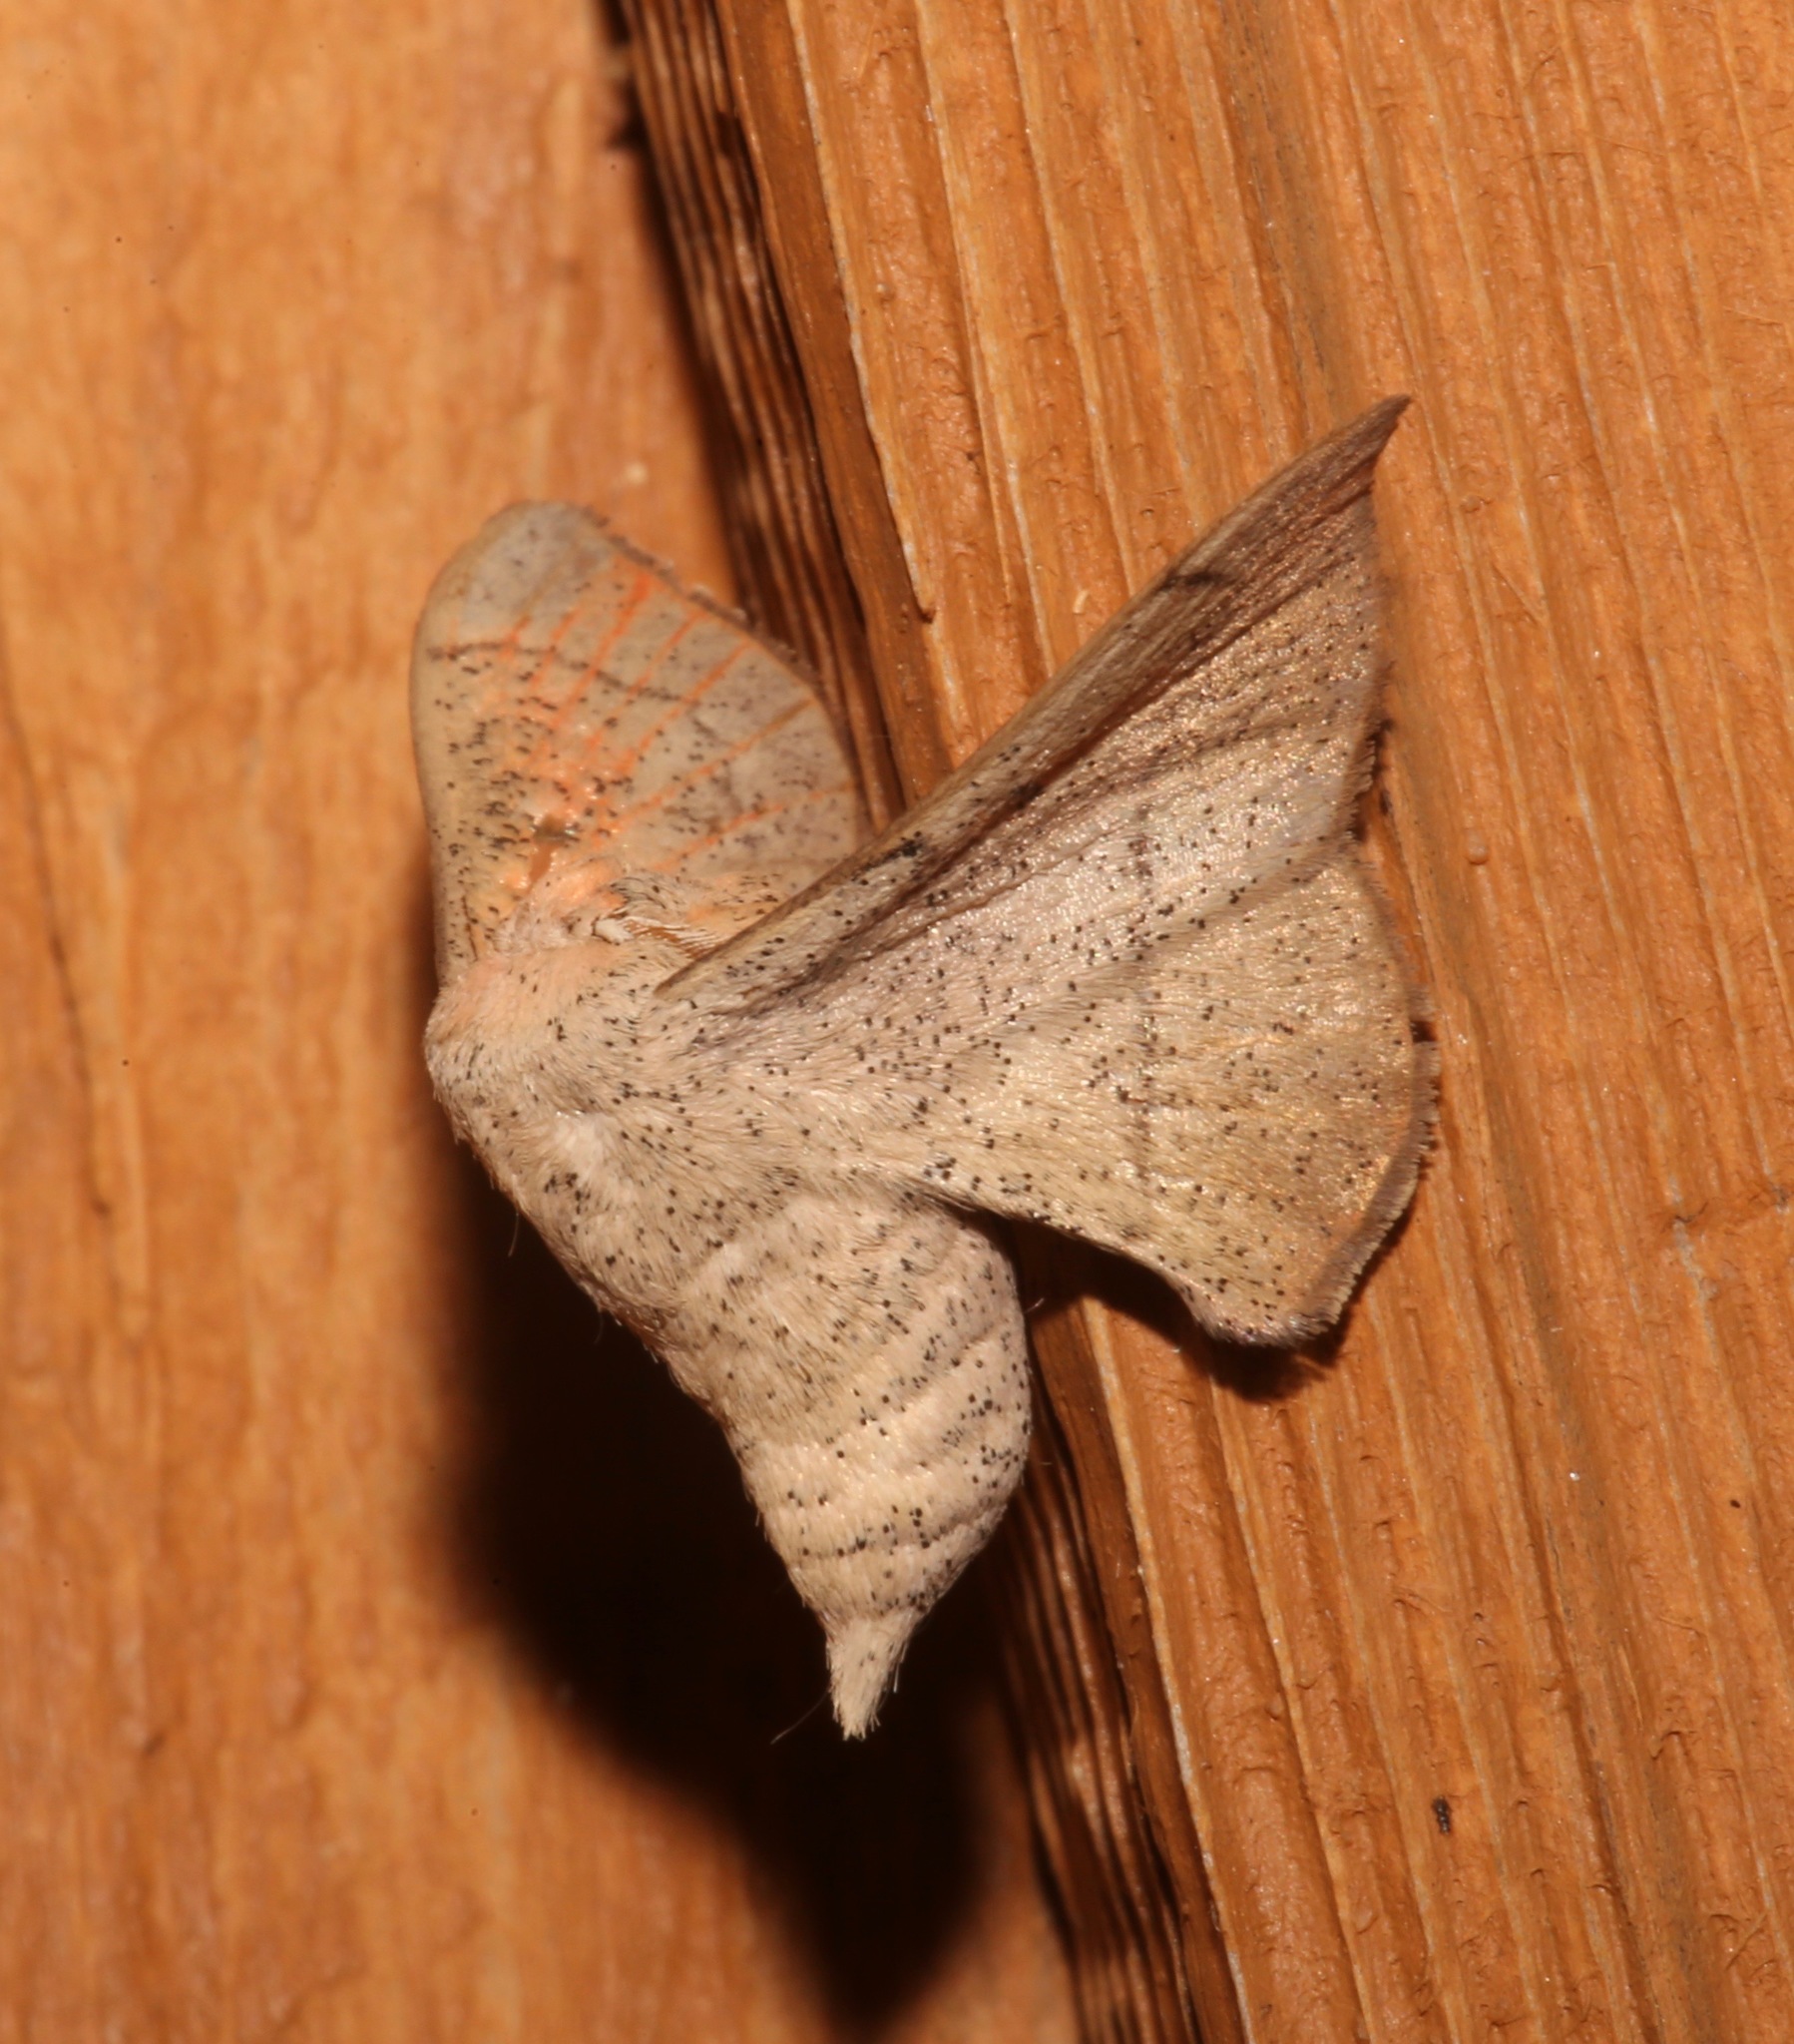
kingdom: Animalia
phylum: Arthropoda
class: Insecta
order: Lepidoptera
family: Mimallonidae
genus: Cicinnus
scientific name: Cicinnus melsheimeri
